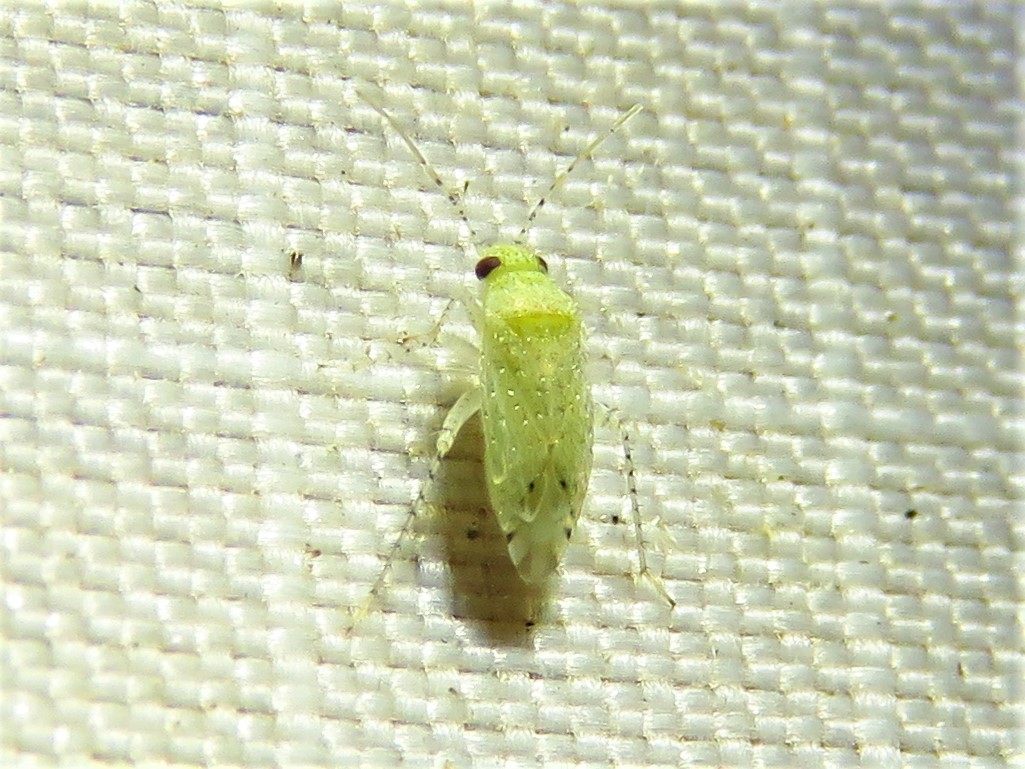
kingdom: Animalia
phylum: Arthropoda
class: Insecta
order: Hemiptera
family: Miridae
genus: Pseudatomoscelis
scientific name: Pseudatomoscelis seriatus
